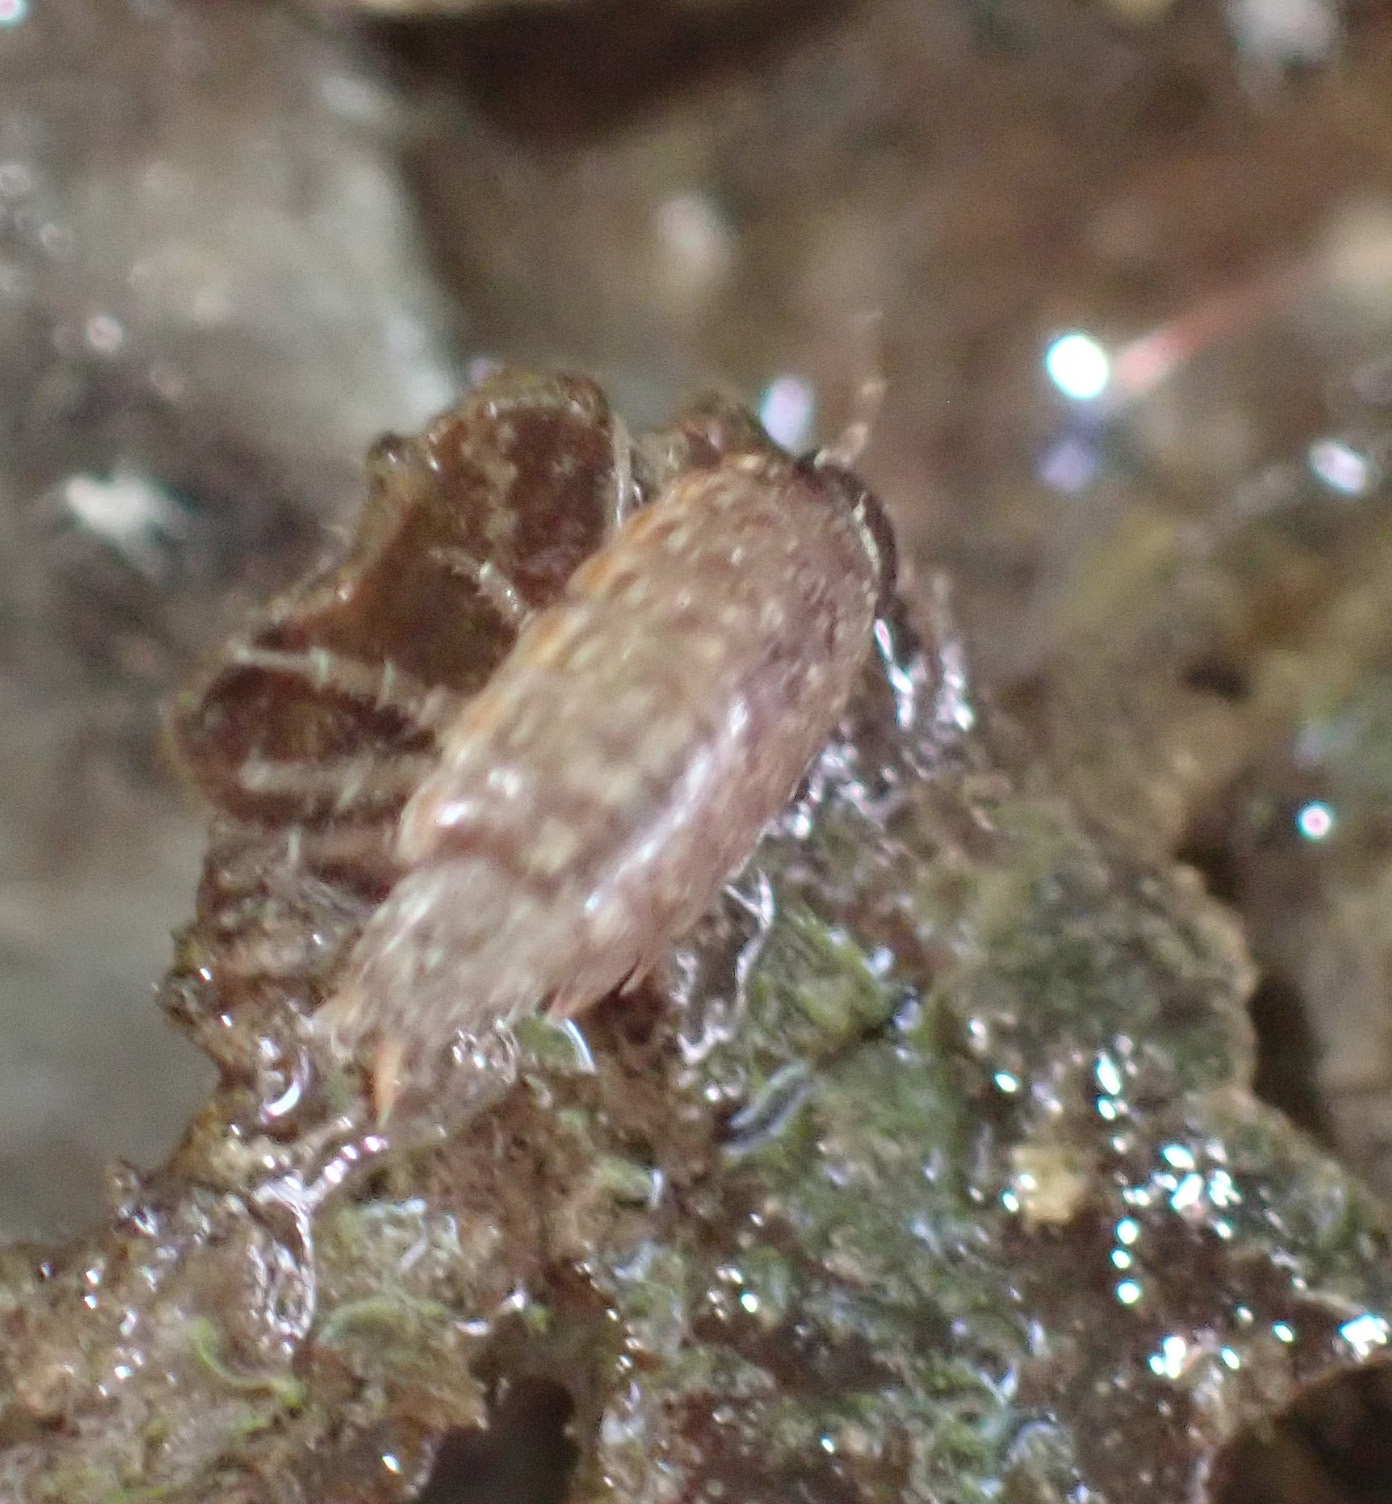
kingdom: Animalia
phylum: Arthropoda
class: Malacostraca
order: Isopoda
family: Philosciidae
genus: Philoscia
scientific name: Philoscia muscorum
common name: Common striped woodlouse
